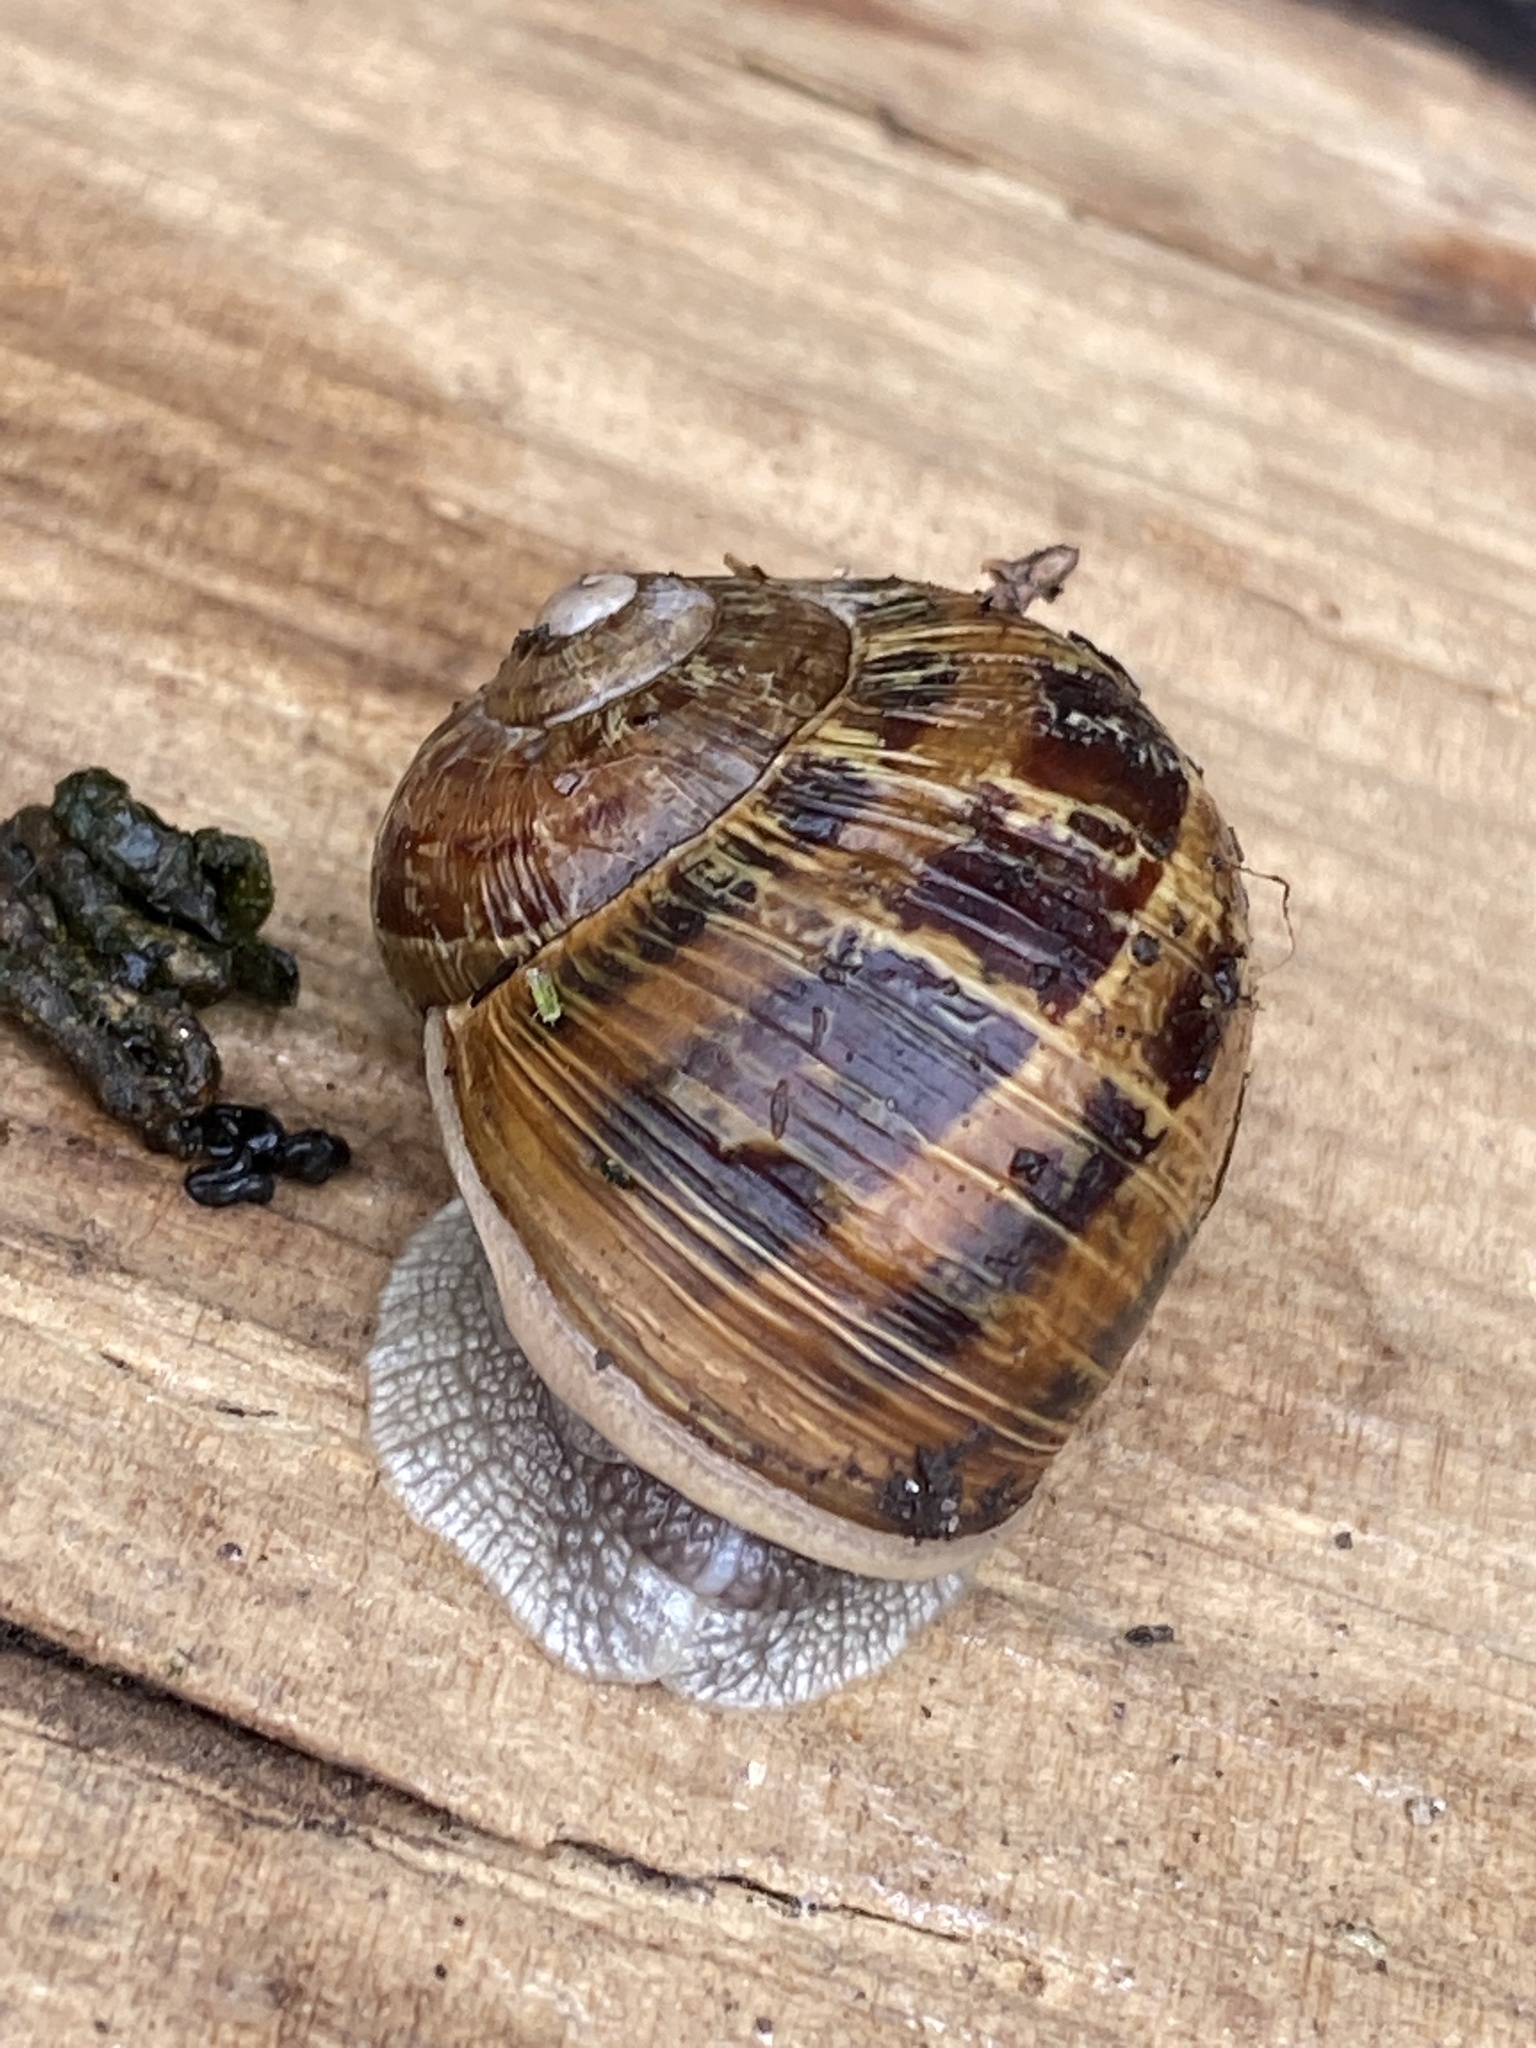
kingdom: Animalia
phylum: Mollusca
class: Gastropoda
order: Stylommatophora
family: Helicidae
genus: Cornu
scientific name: Cornu aspersum
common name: Brown garden snail
